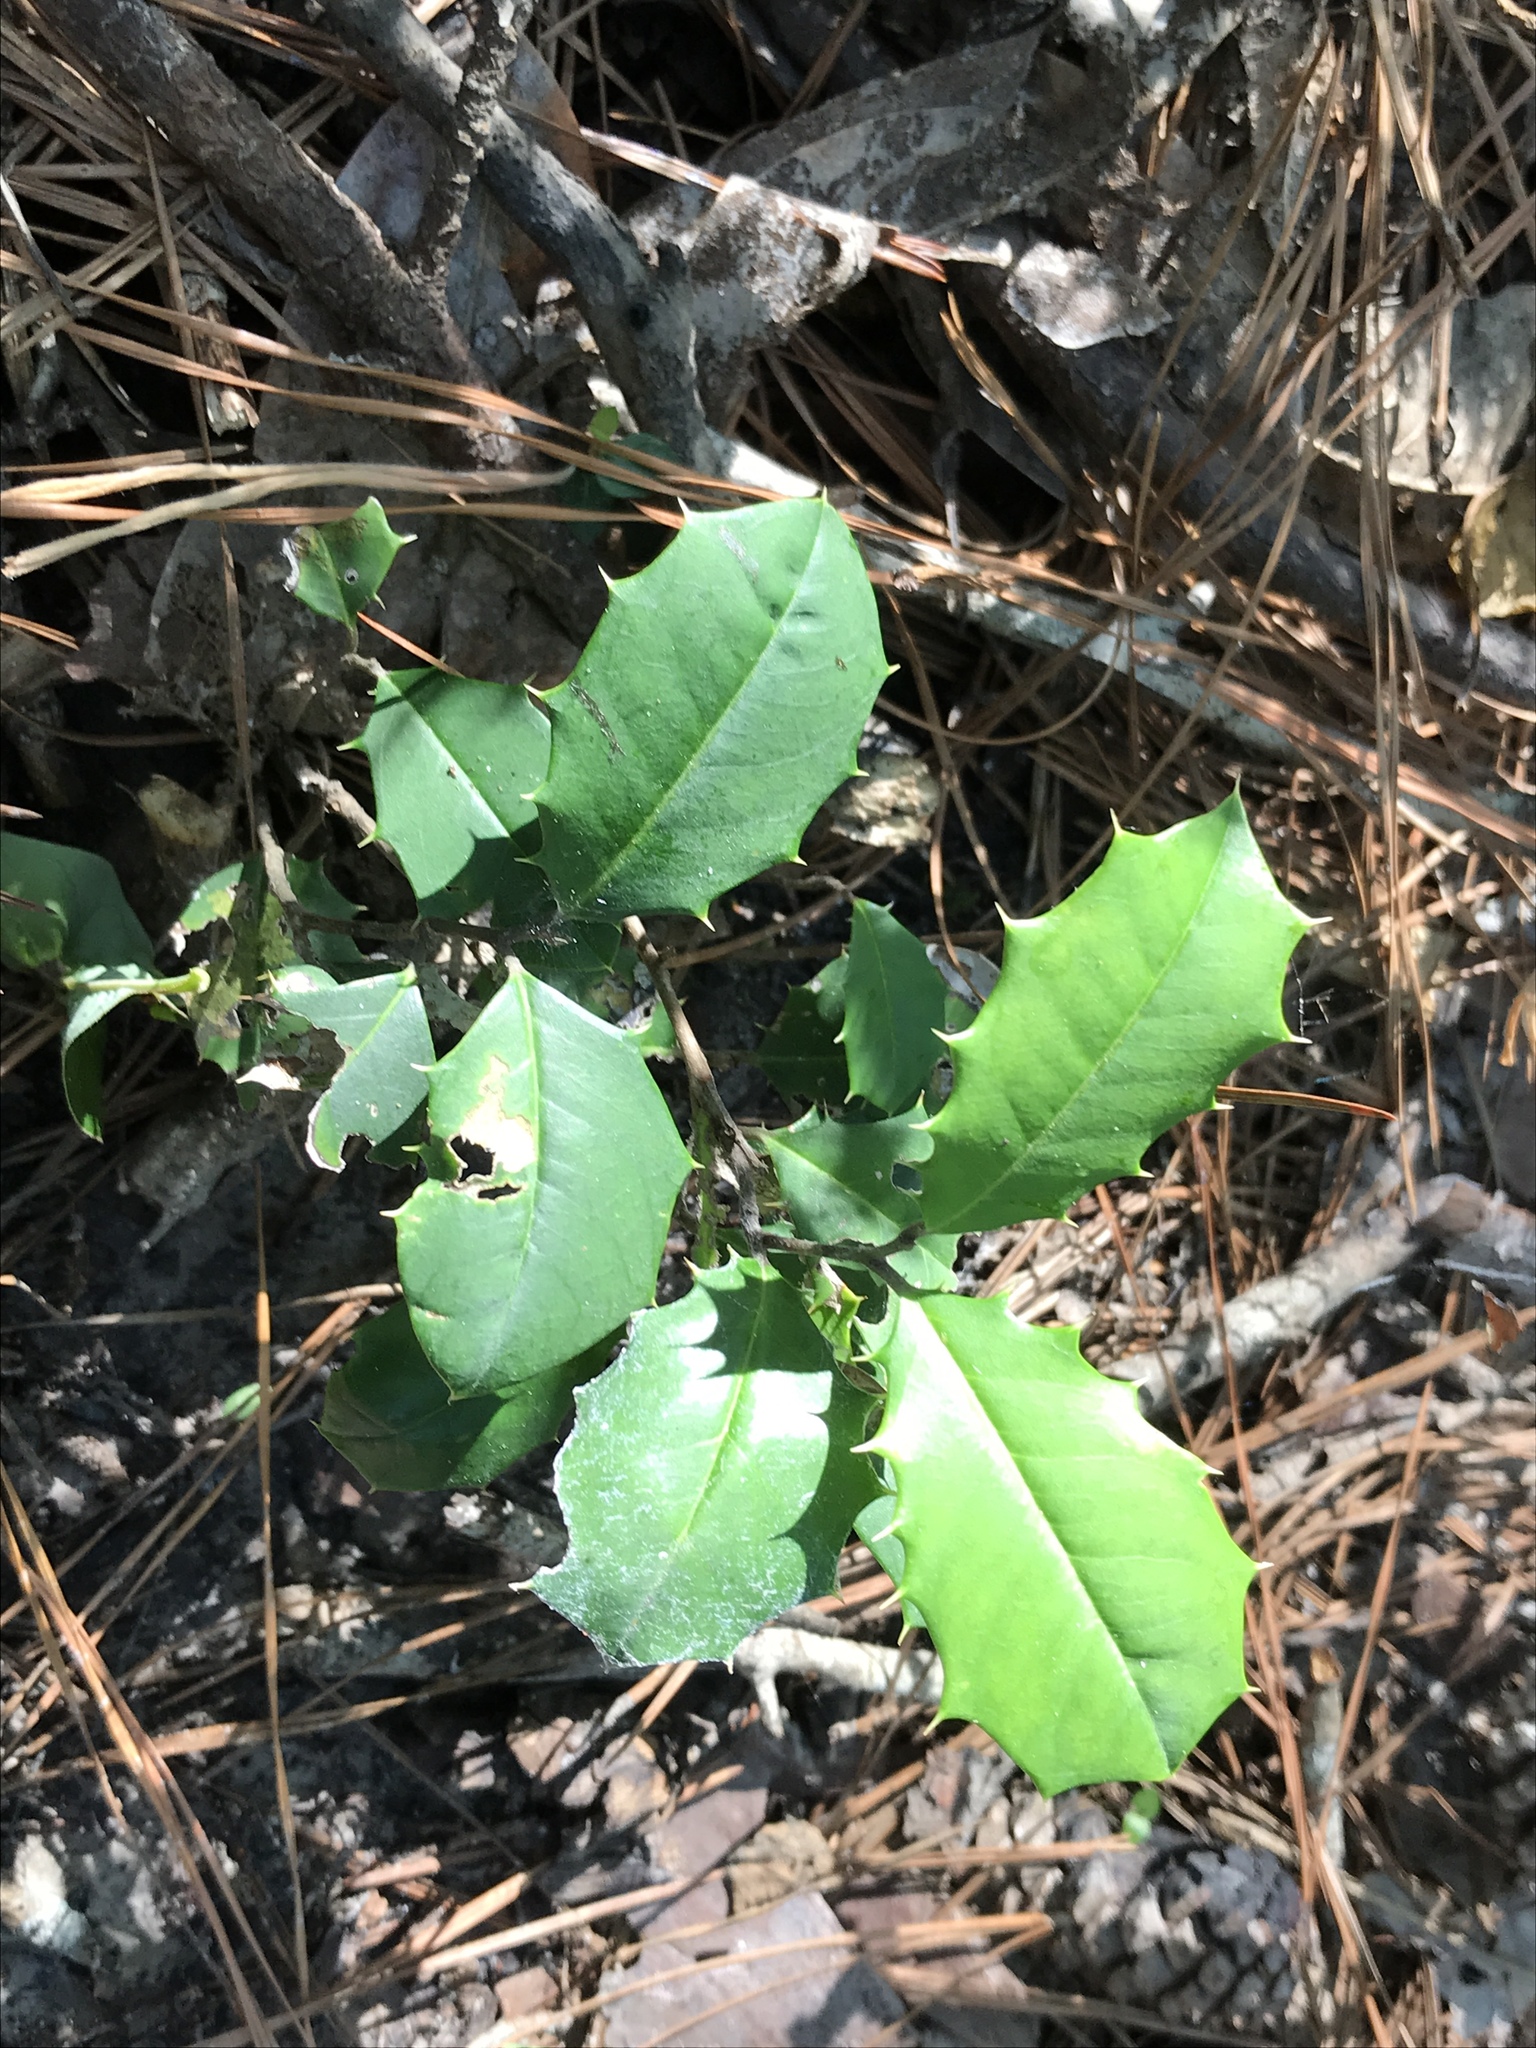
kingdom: Plantae
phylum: Tracheophyta
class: Magnoliopsida
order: Aquifoliales
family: Aquifoliaceae
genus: Ilex
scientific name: Ilex opaca
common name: American holly
